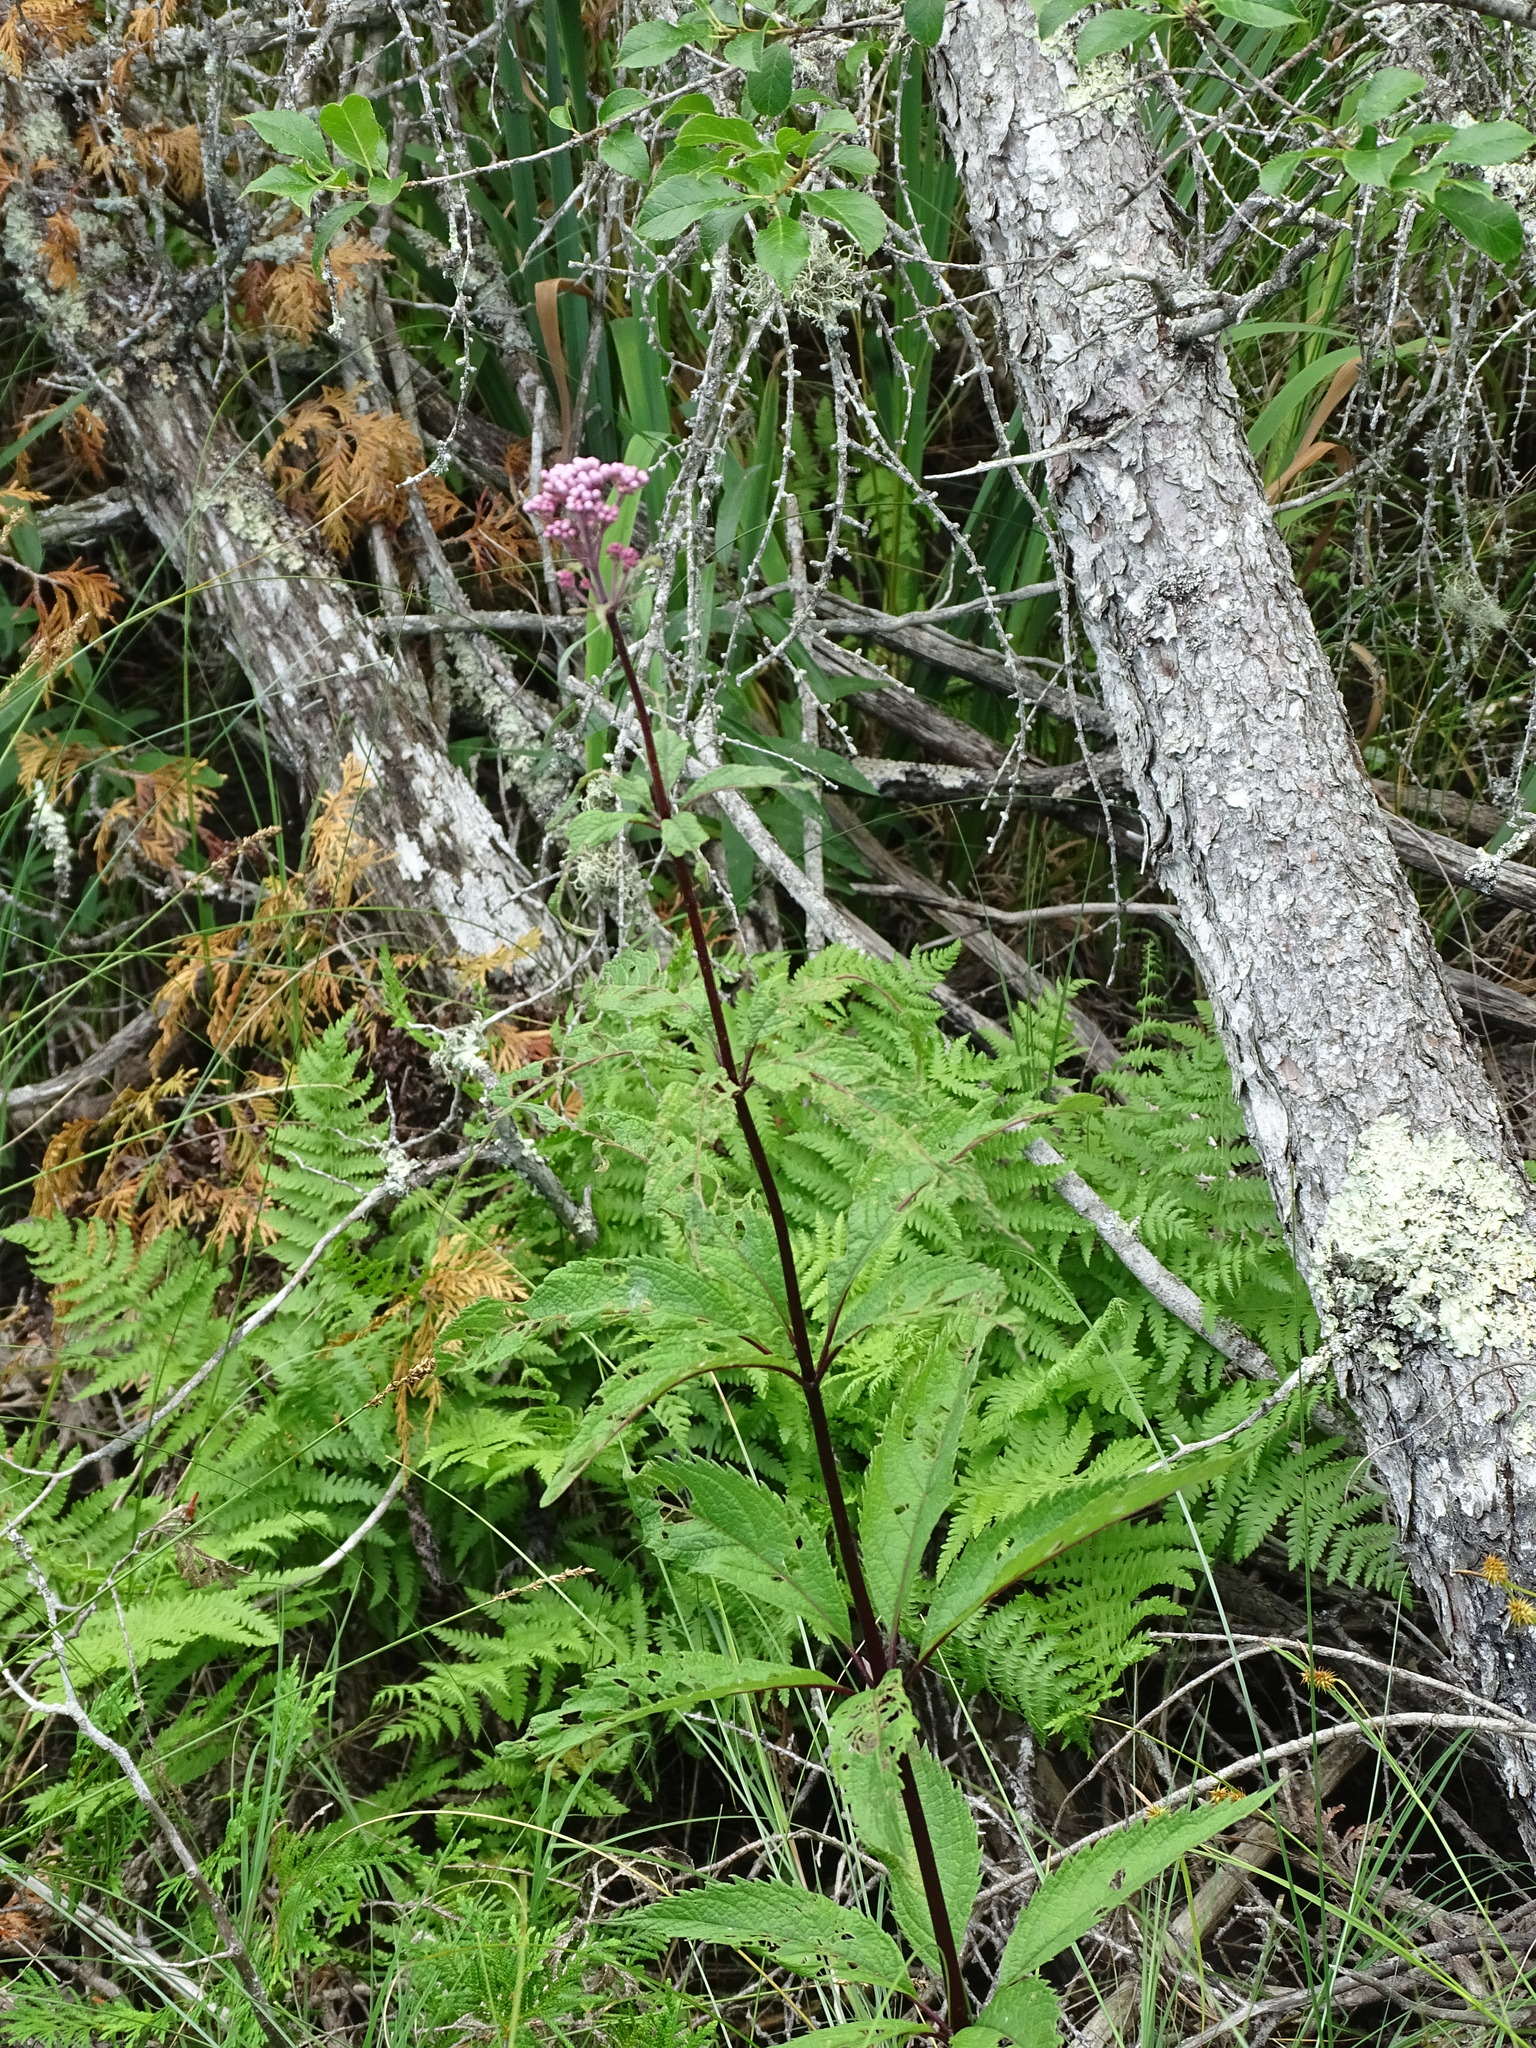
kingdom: Plantae
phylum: Tracheophyta
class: Magnoliopsida
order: Asterales
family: Asteraceae
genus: Eutrochium
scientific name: Eutrochium maculatum
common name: Spotted joe pye weed
